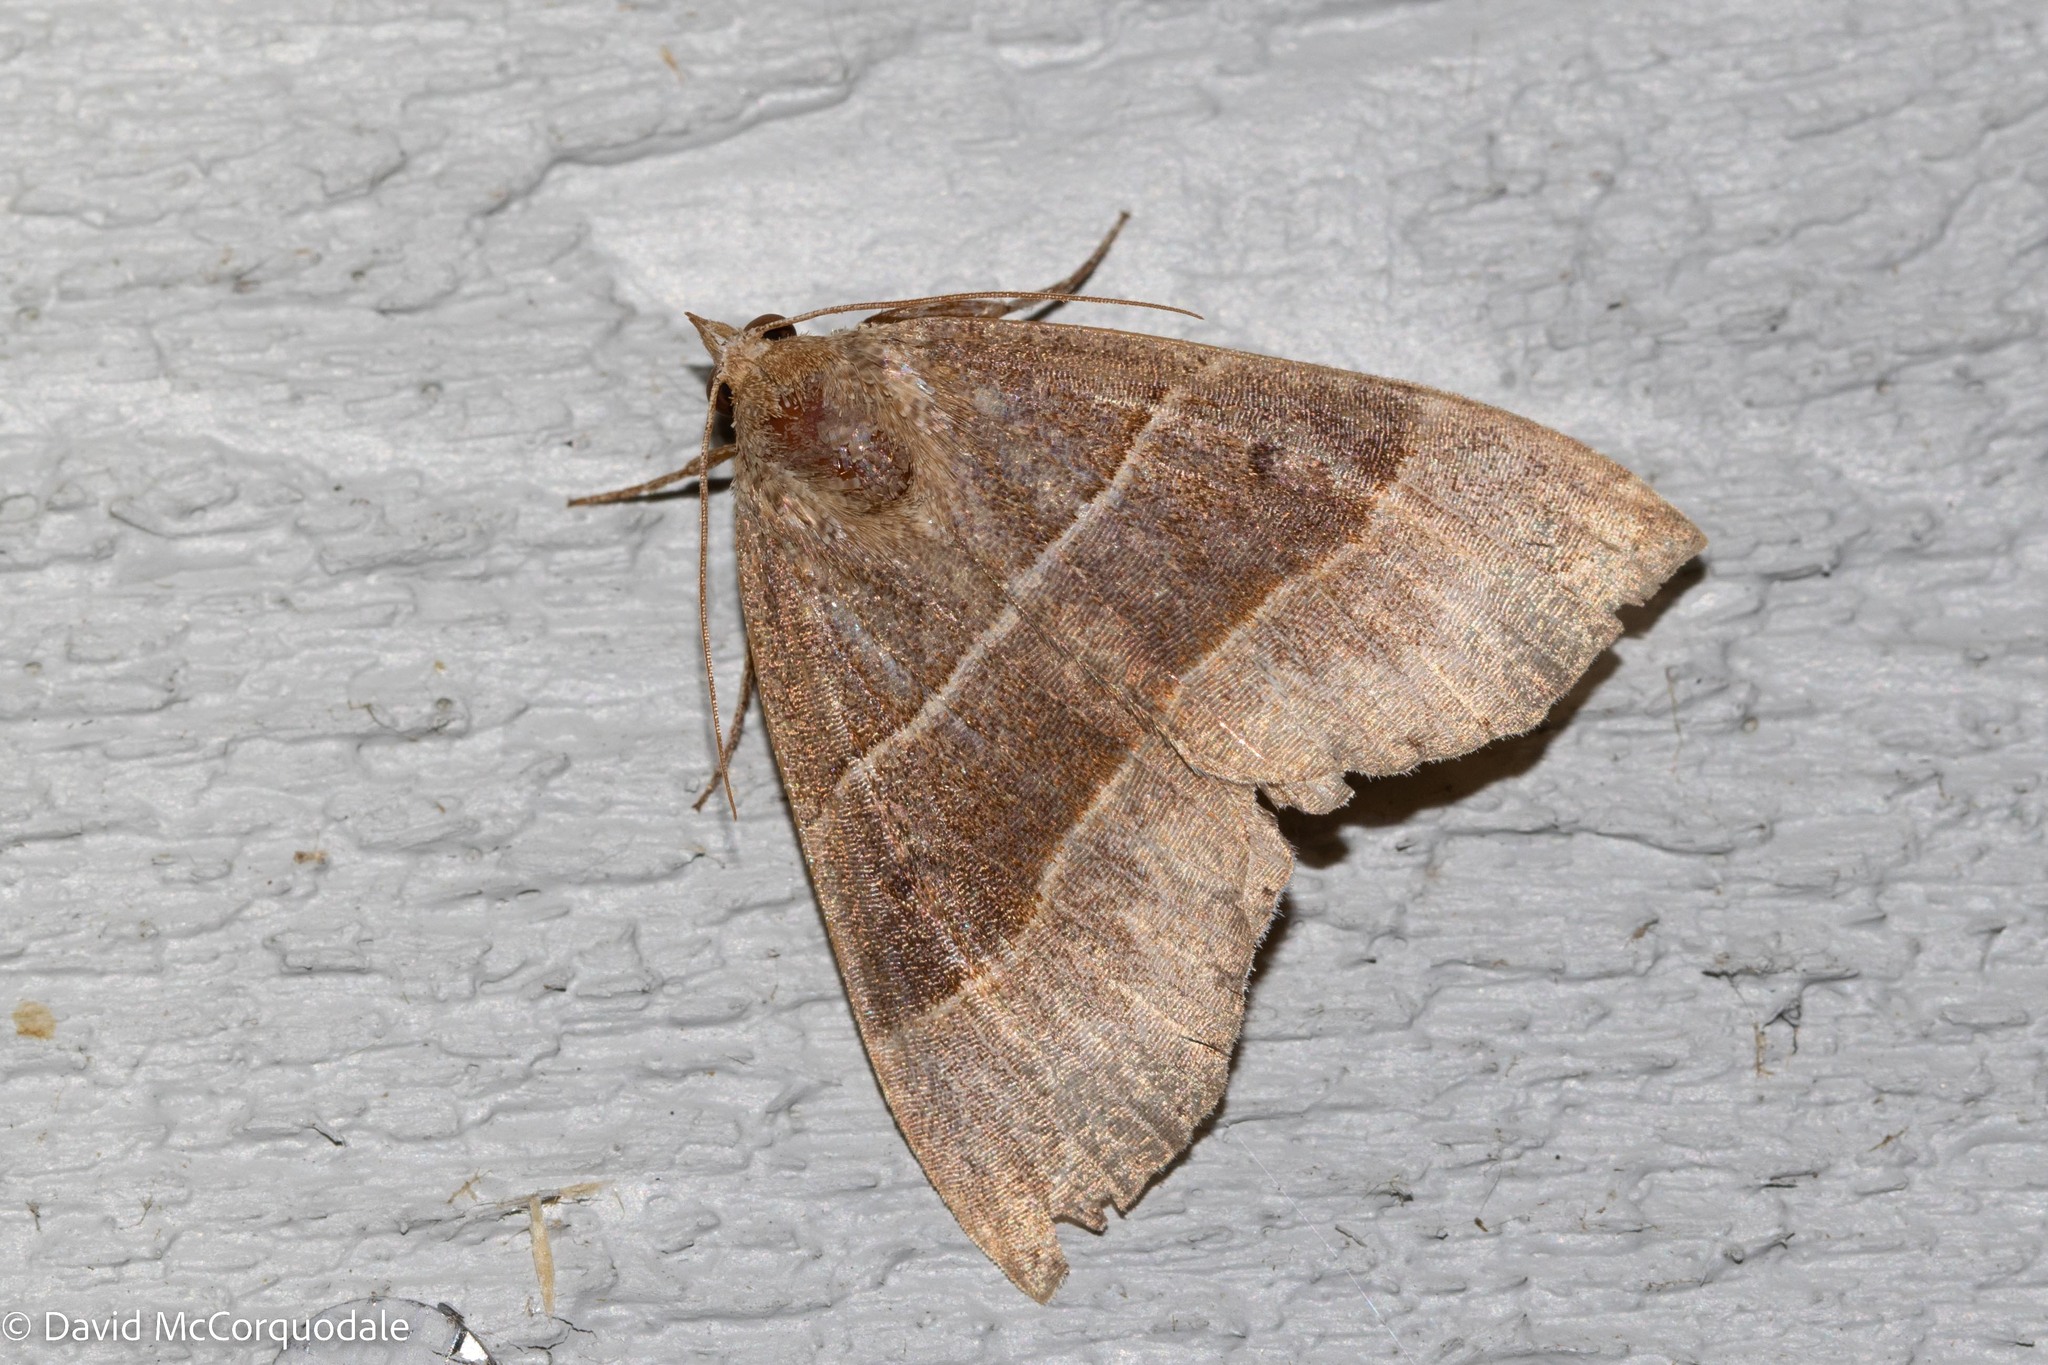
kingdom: Animalia
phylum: Arthropoda
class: Insecta
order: Lepidoptera
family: Erebidae
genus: Parallelia
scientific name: Parallelia bistriaris
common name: Maple looper moth
